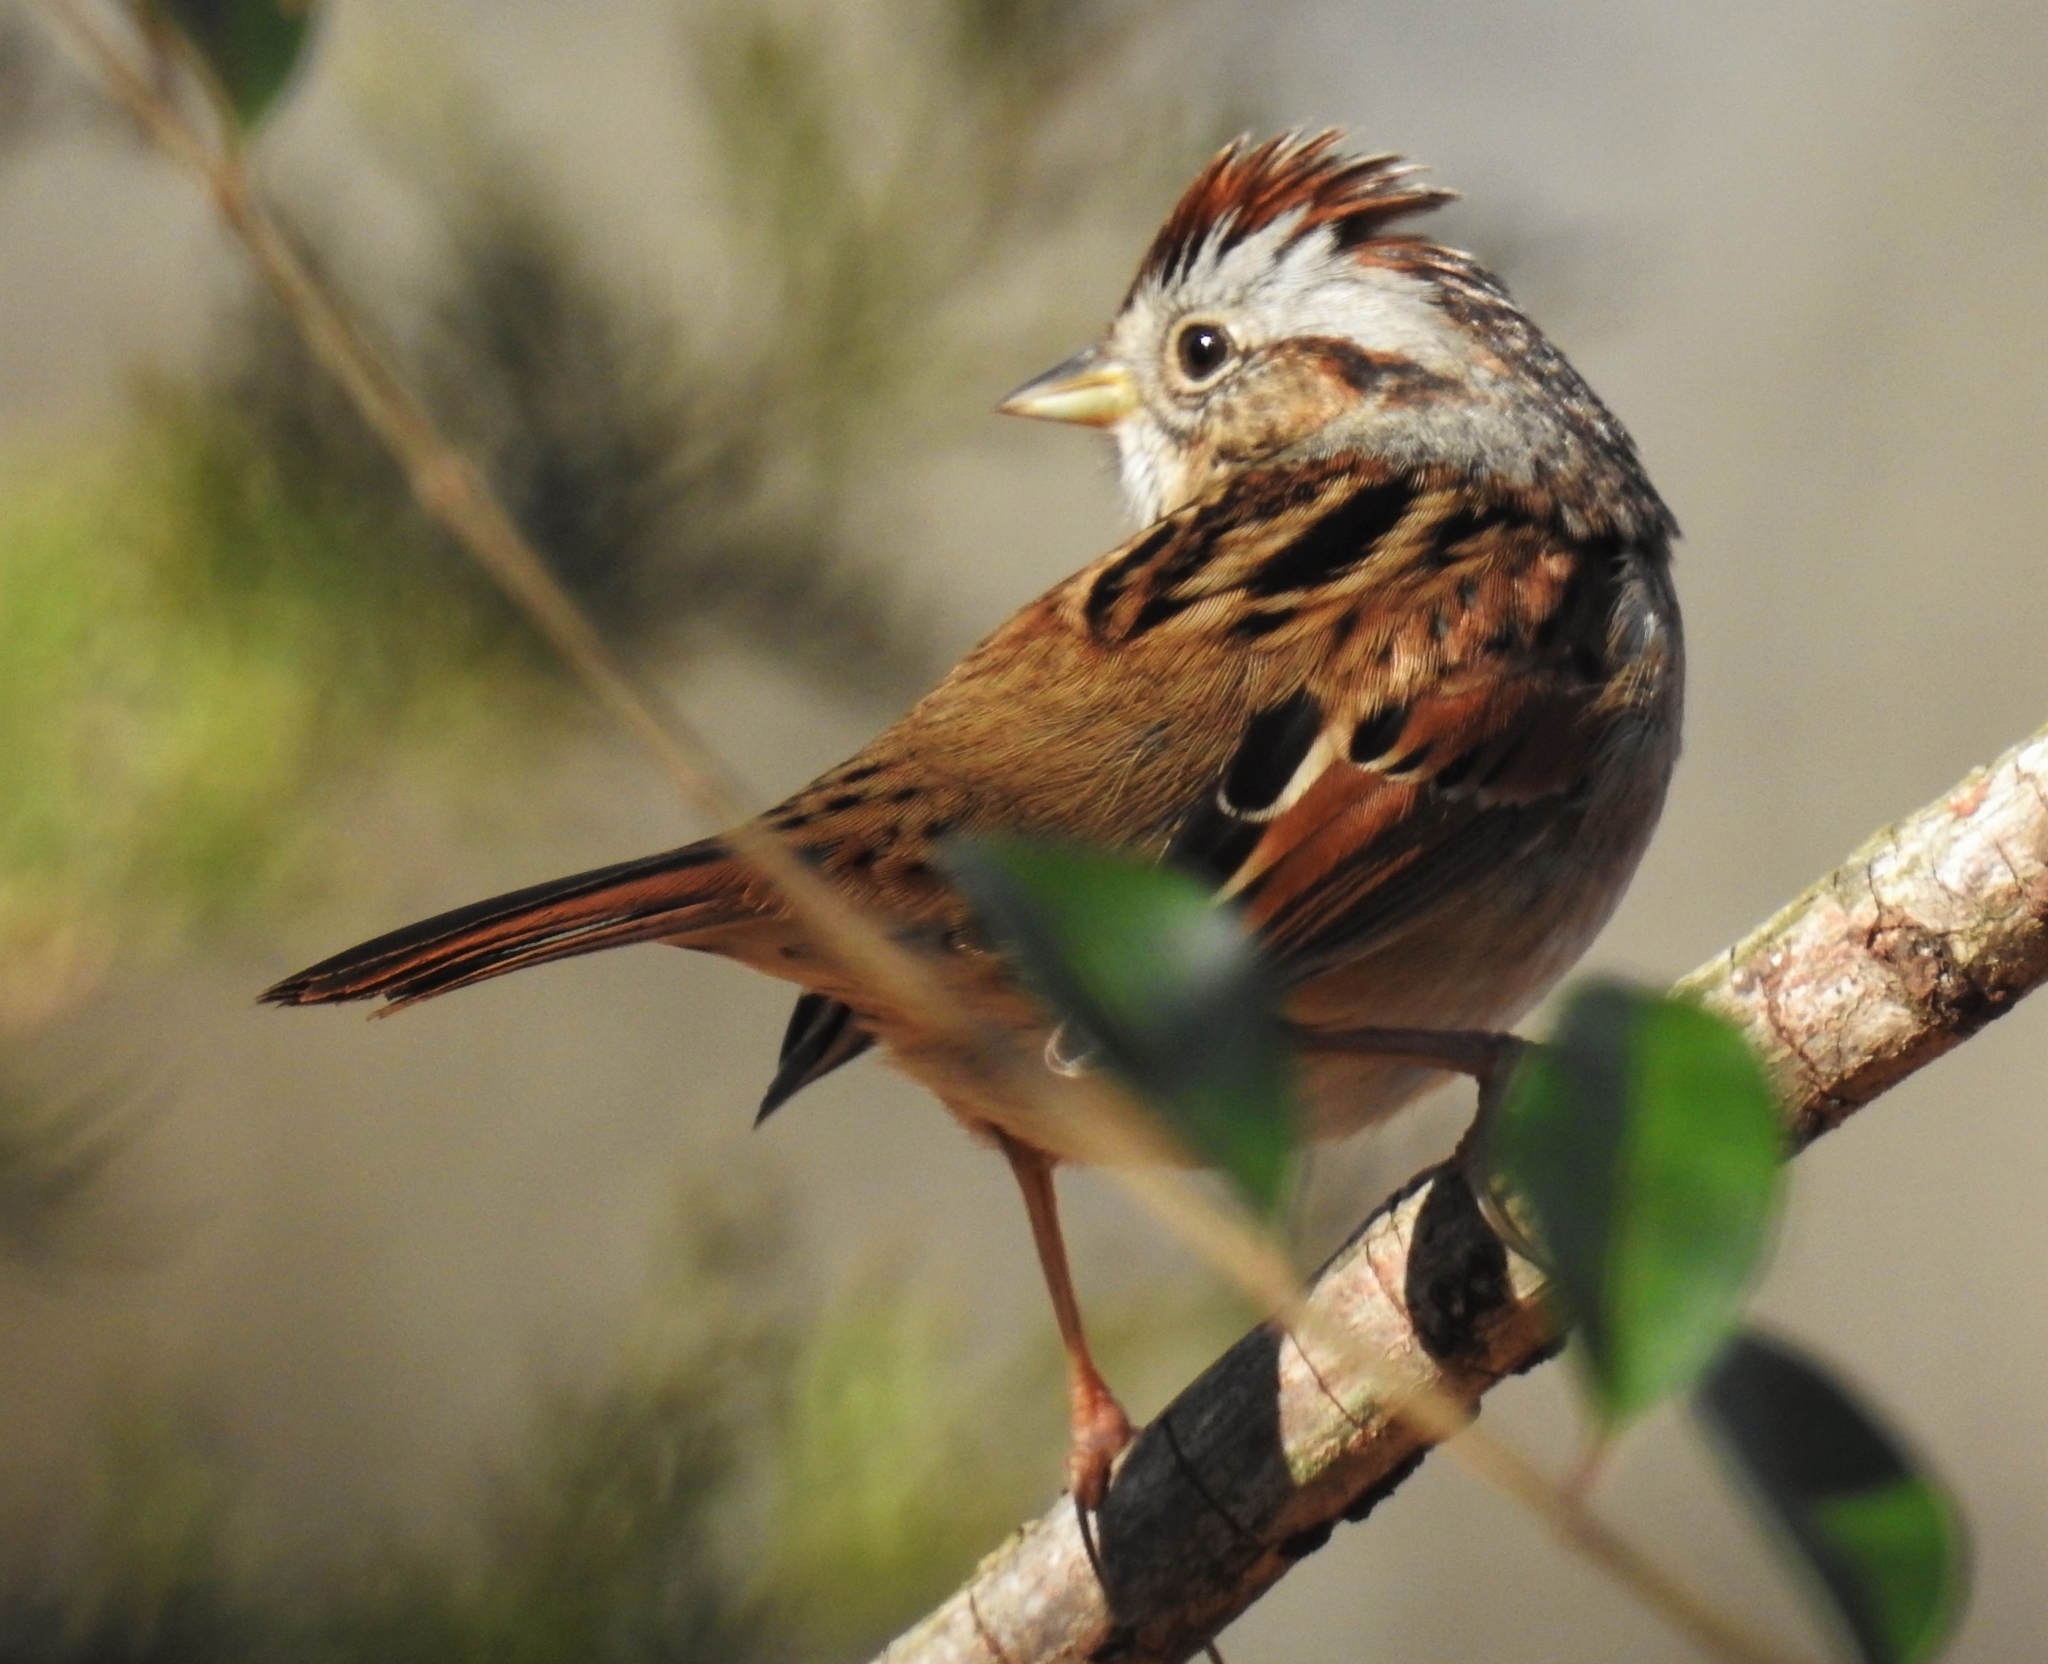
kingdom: Animalia
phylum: Chordata
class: Aves
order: Passeriformes
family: Passerellidae
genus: Melospiza
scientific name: Melospiza georgiana
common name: Swamp sparrow
